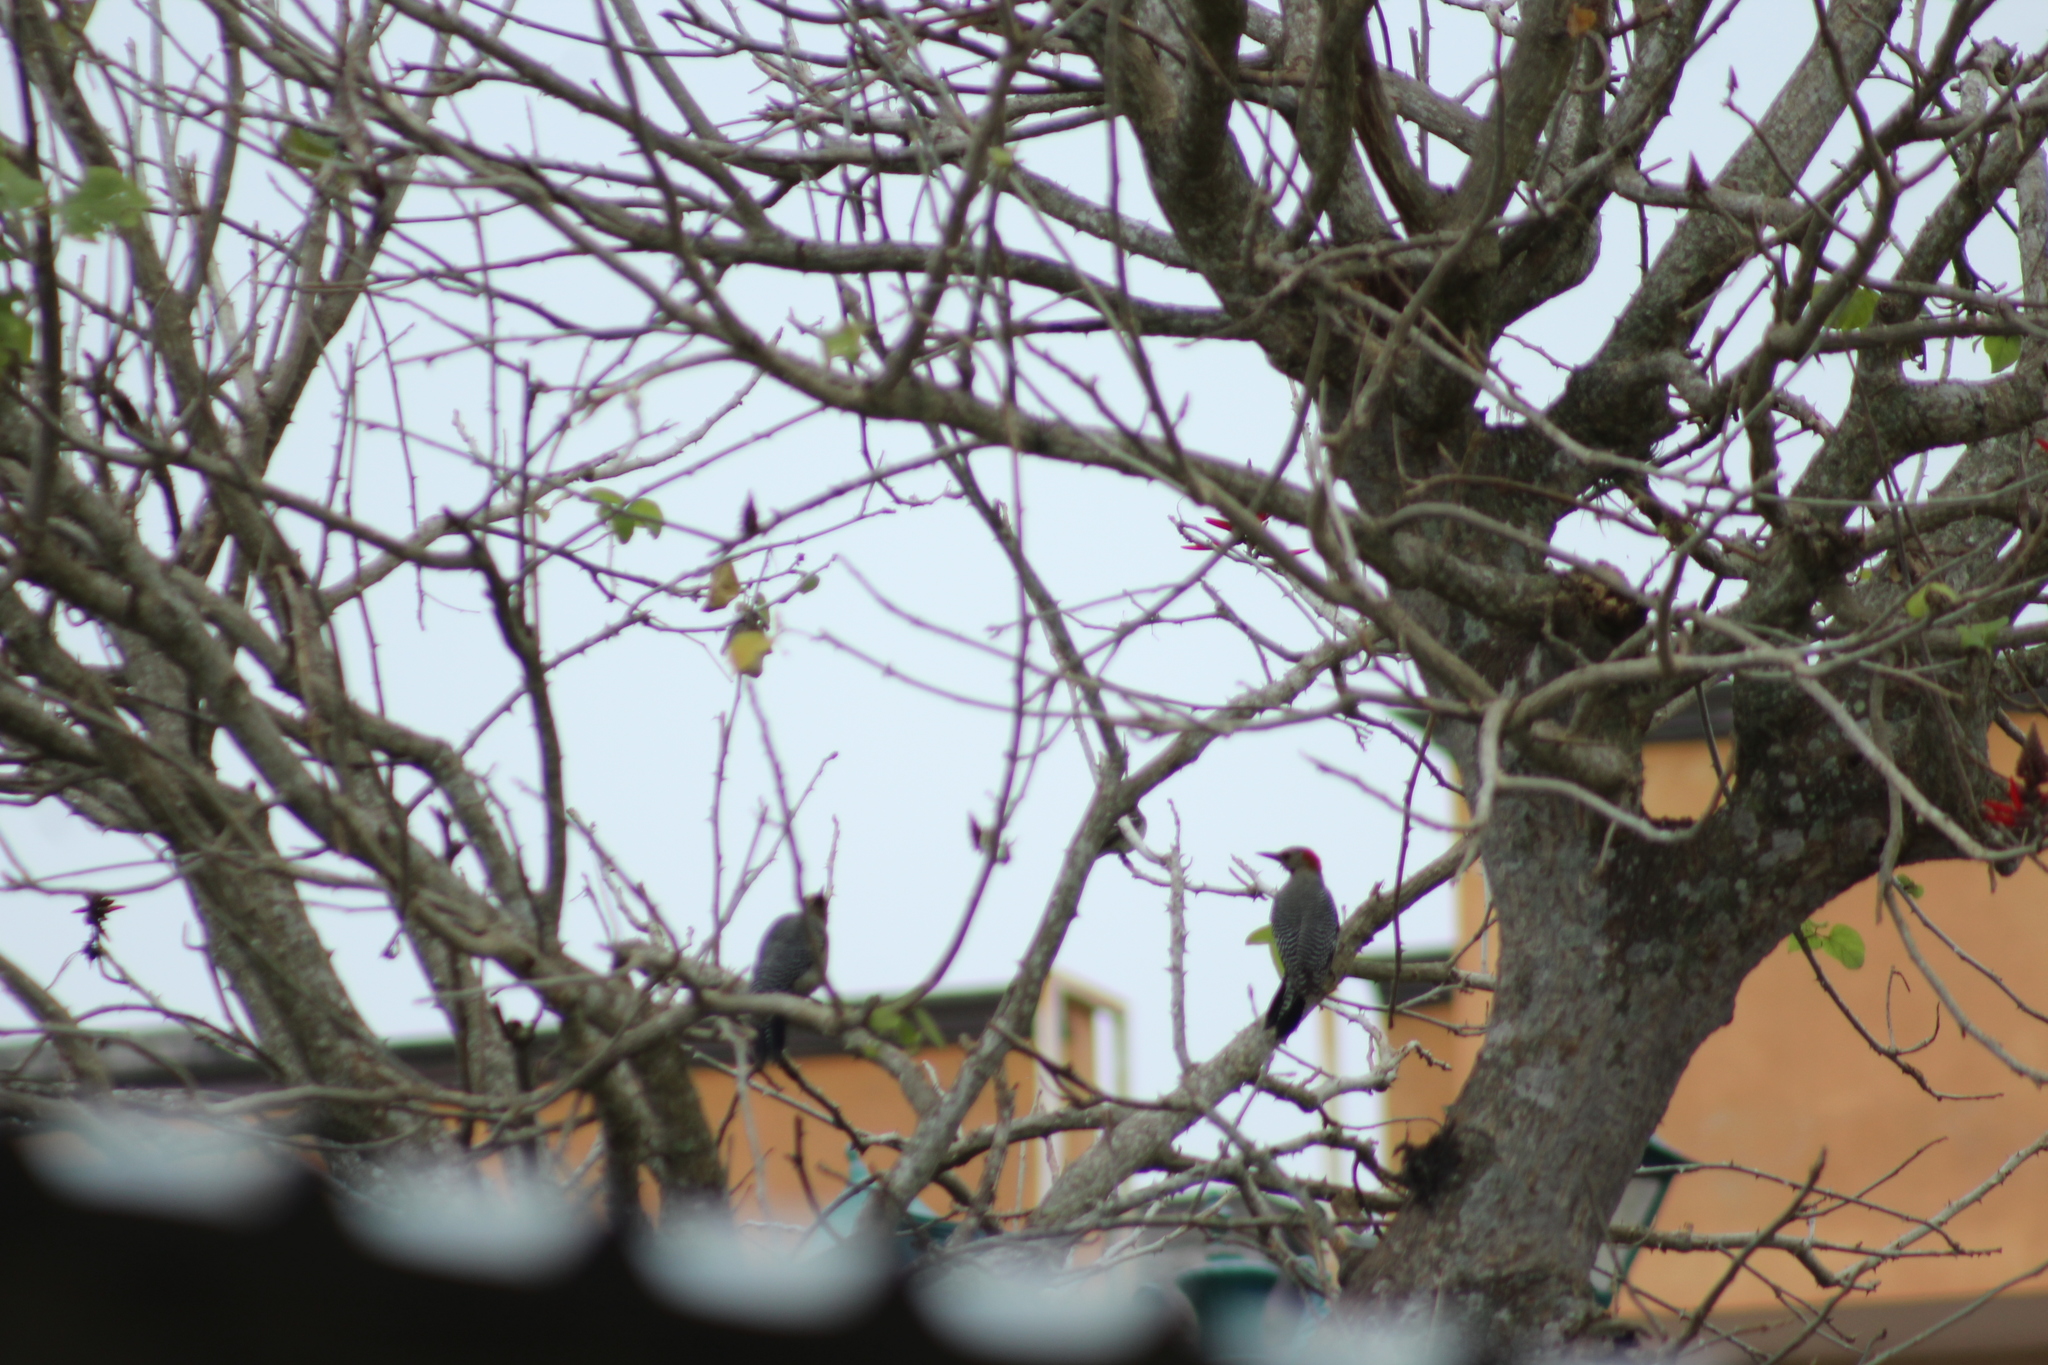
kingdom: Animalia
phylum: Chordata
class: Aves
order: Piciformes
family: Picidae
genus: Melanerpes
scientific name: Melanerpes aurifrons
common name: Golden-fronted woodpecker
